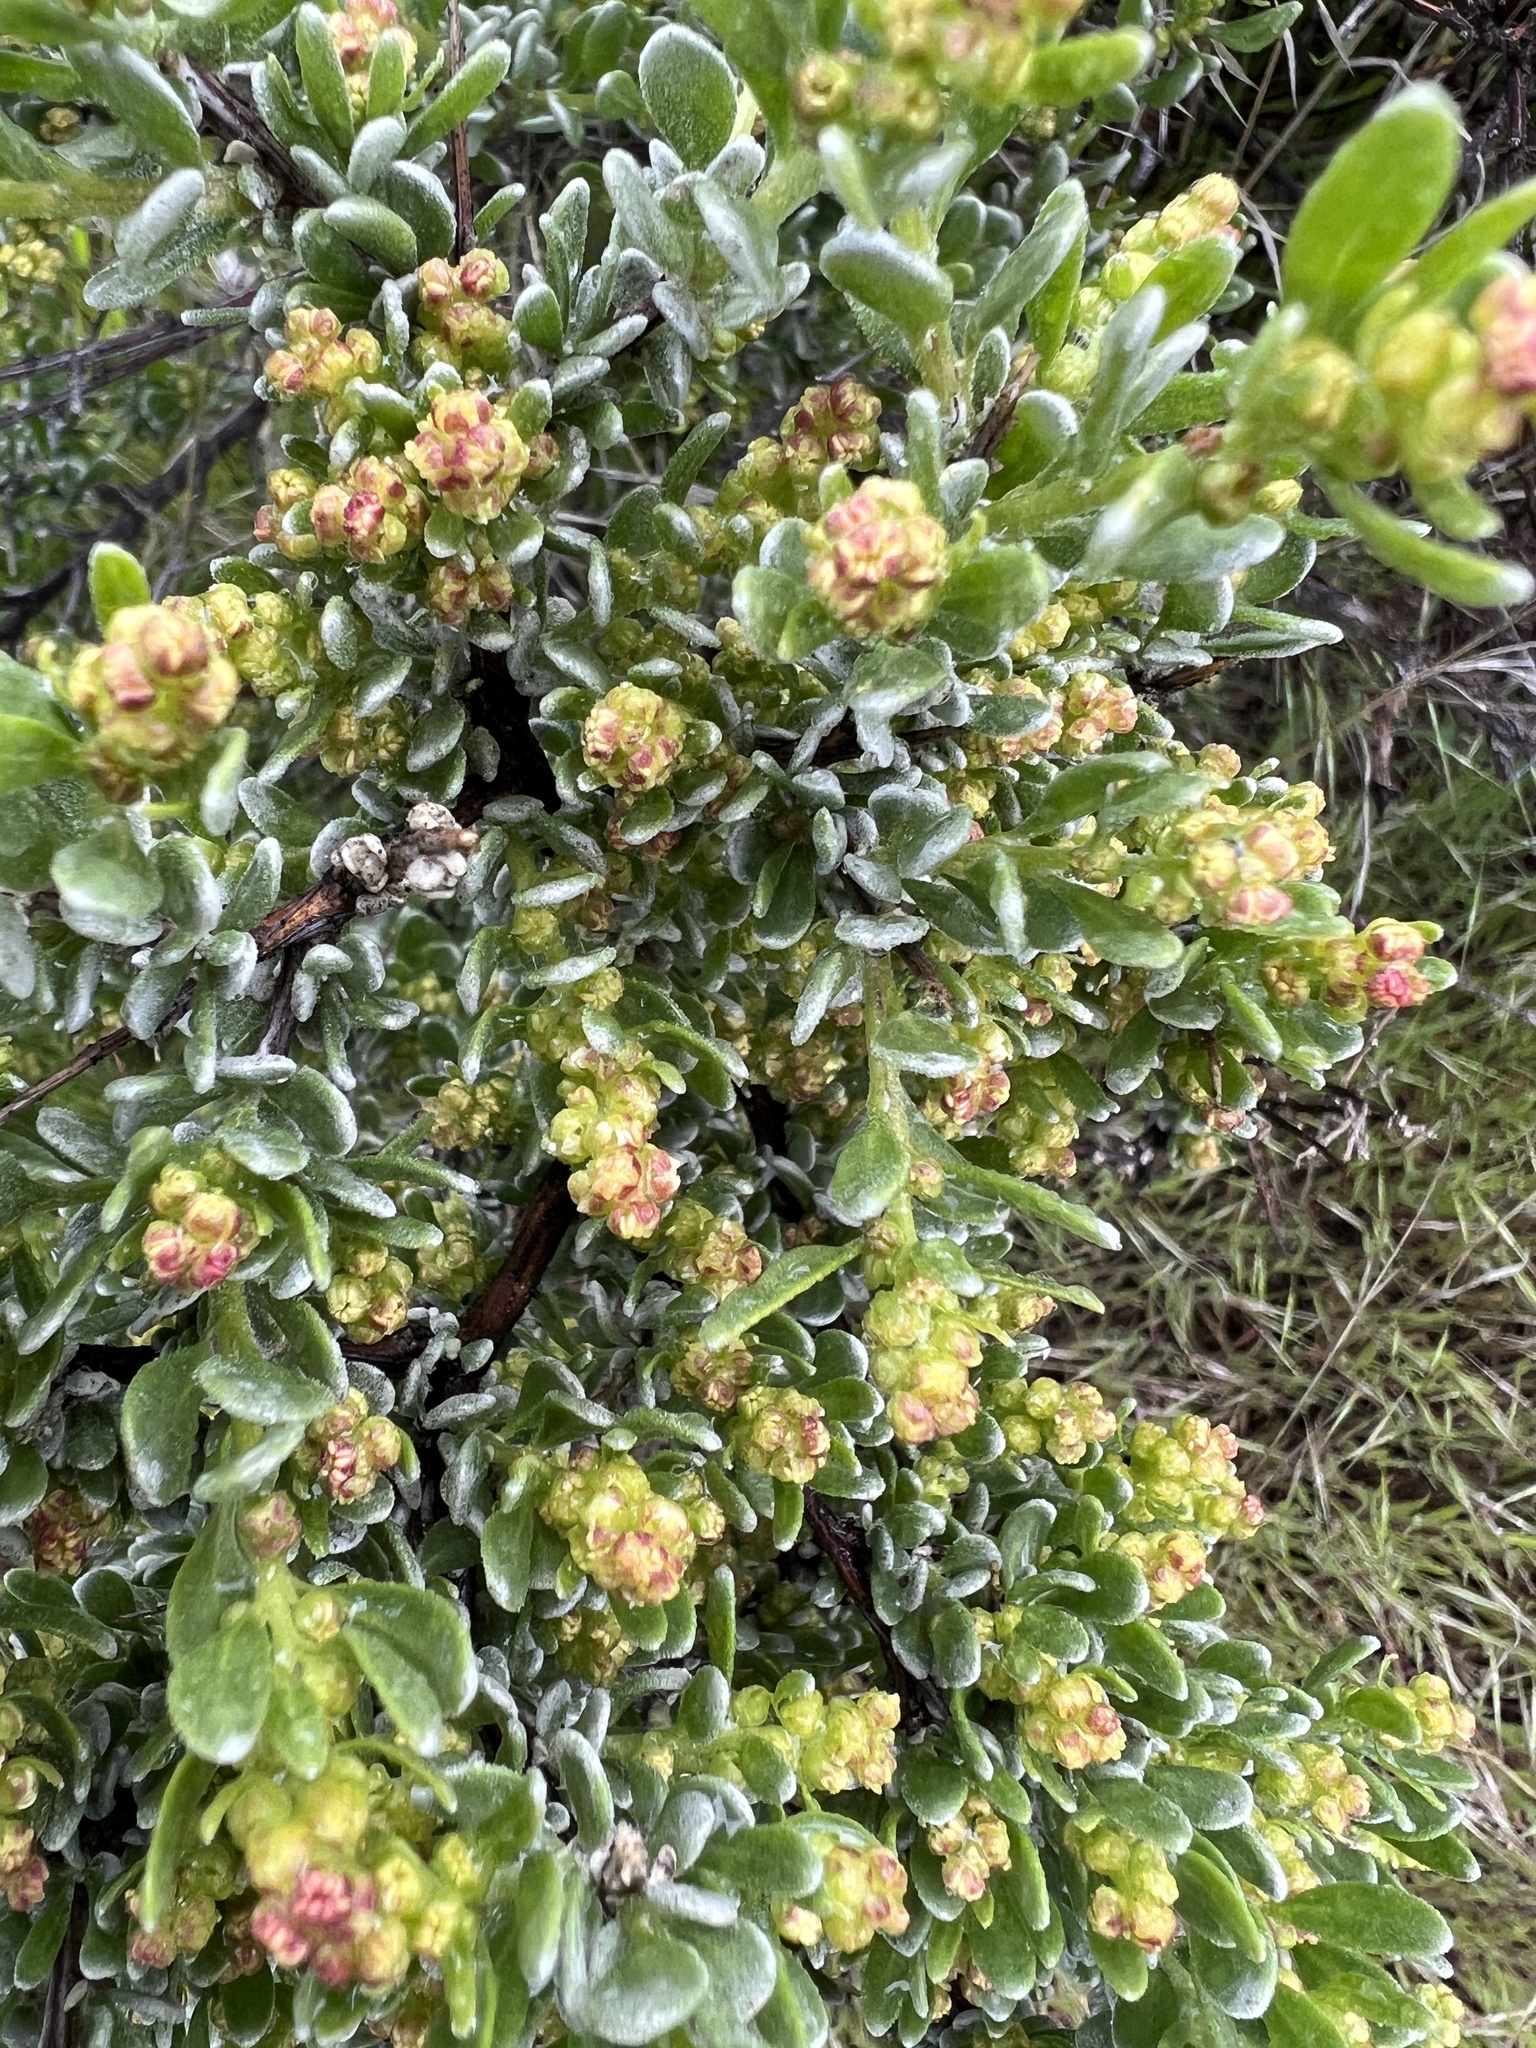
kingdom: Plantae
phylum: Tracheophyta
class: Magnoliopsida
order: Caryophyllales
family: Amaranthaceae
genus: Grayia
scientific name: Grayia spinosa
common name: Spiny hopsage
